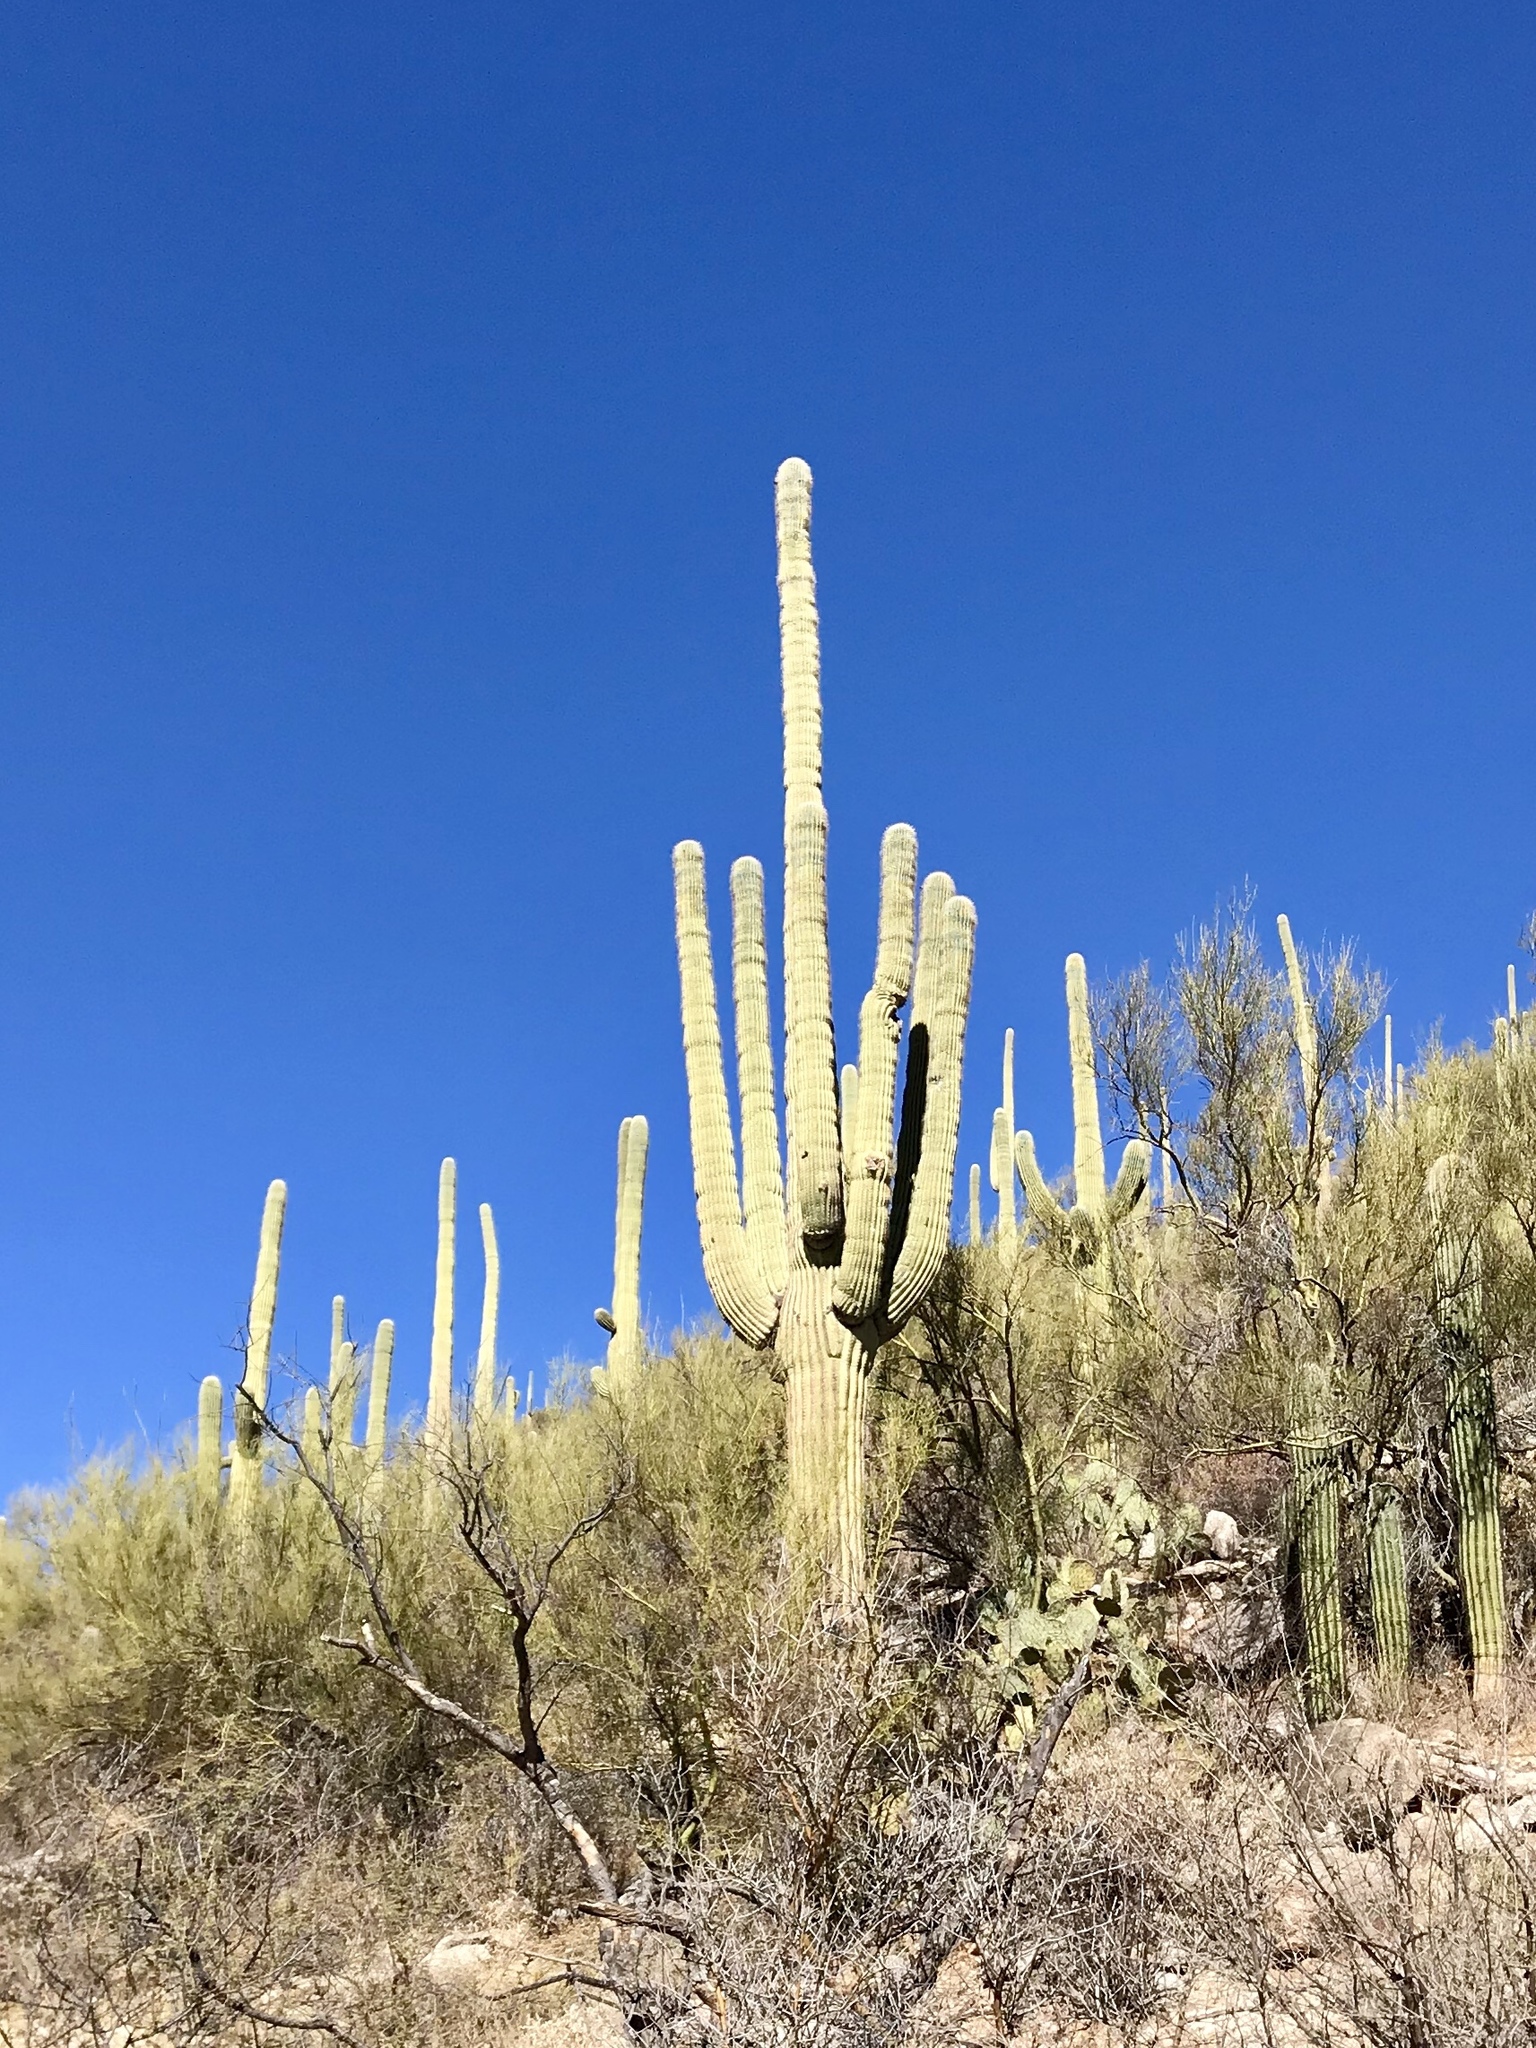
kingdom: Plantae
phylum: Tracheophyta
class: Magnoliopsida
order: Caryophyllales
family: Cactaceae
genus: Carnegiea
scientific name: Carnegiea gigantea
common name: Saguaro
